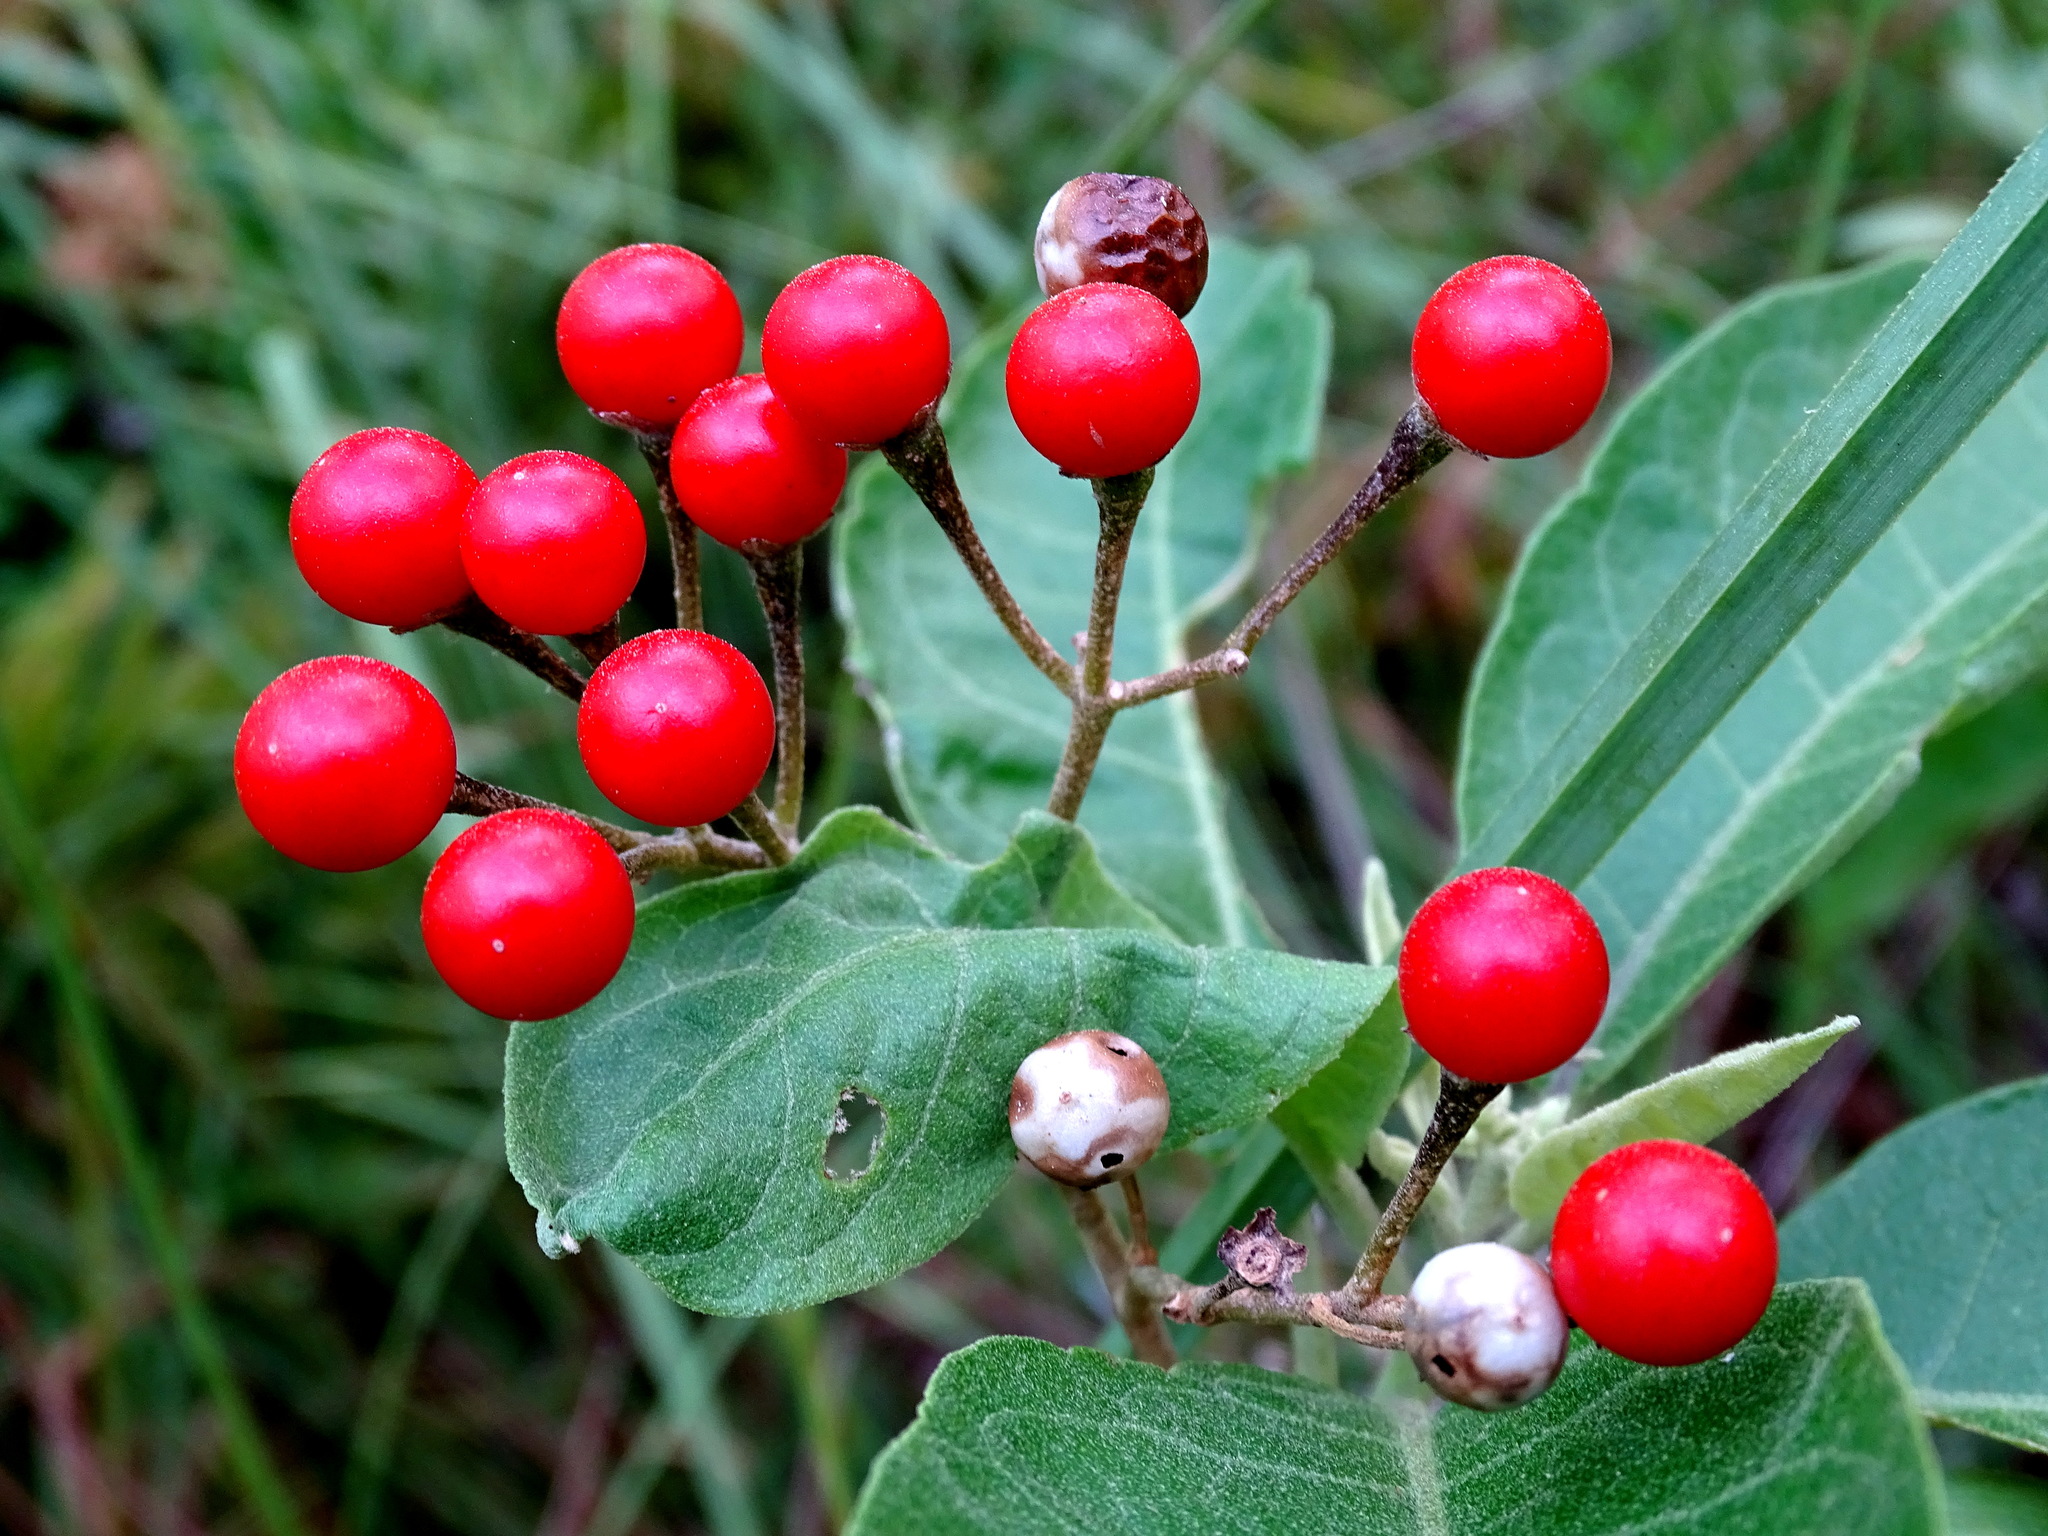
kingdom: Plantae
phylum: Tracheophyta
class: Magnoliopsida
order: Solanales
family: Solanaceae
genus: Solanum
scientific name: Solanum donianum
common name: Mullein nightshade
